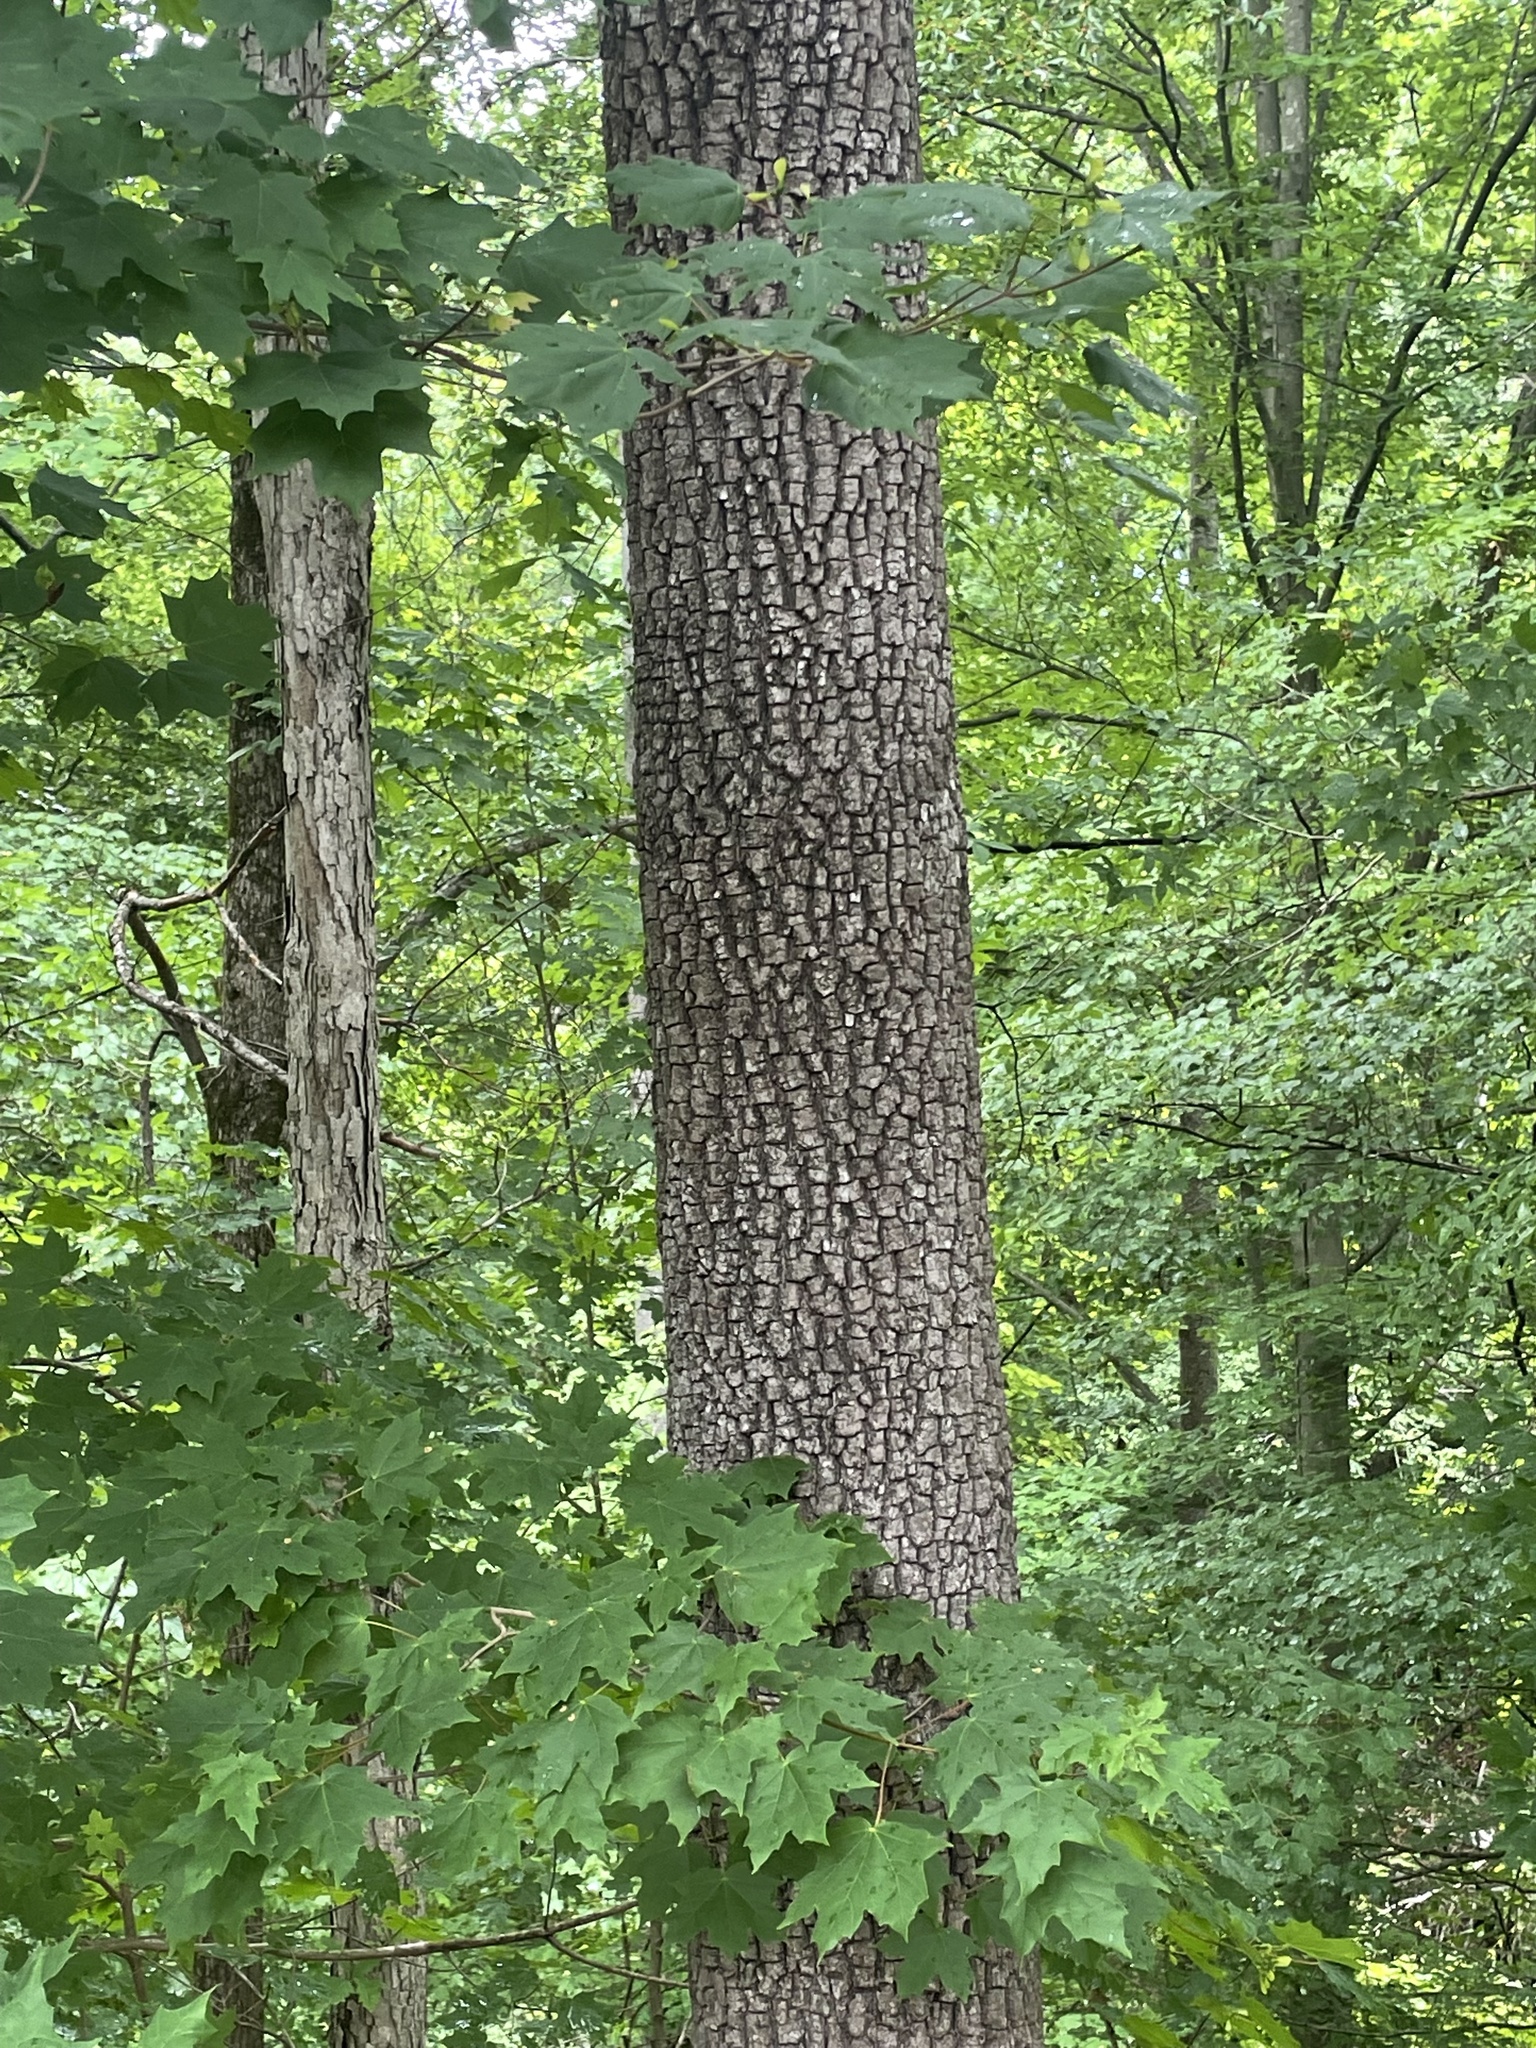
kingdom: Plantae
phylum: Tracheophyta
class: Magnoliopsida
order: Ericales
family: Ebenaceae
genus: Diospyros
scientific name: Diospyros virginiana
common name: Persimmon
